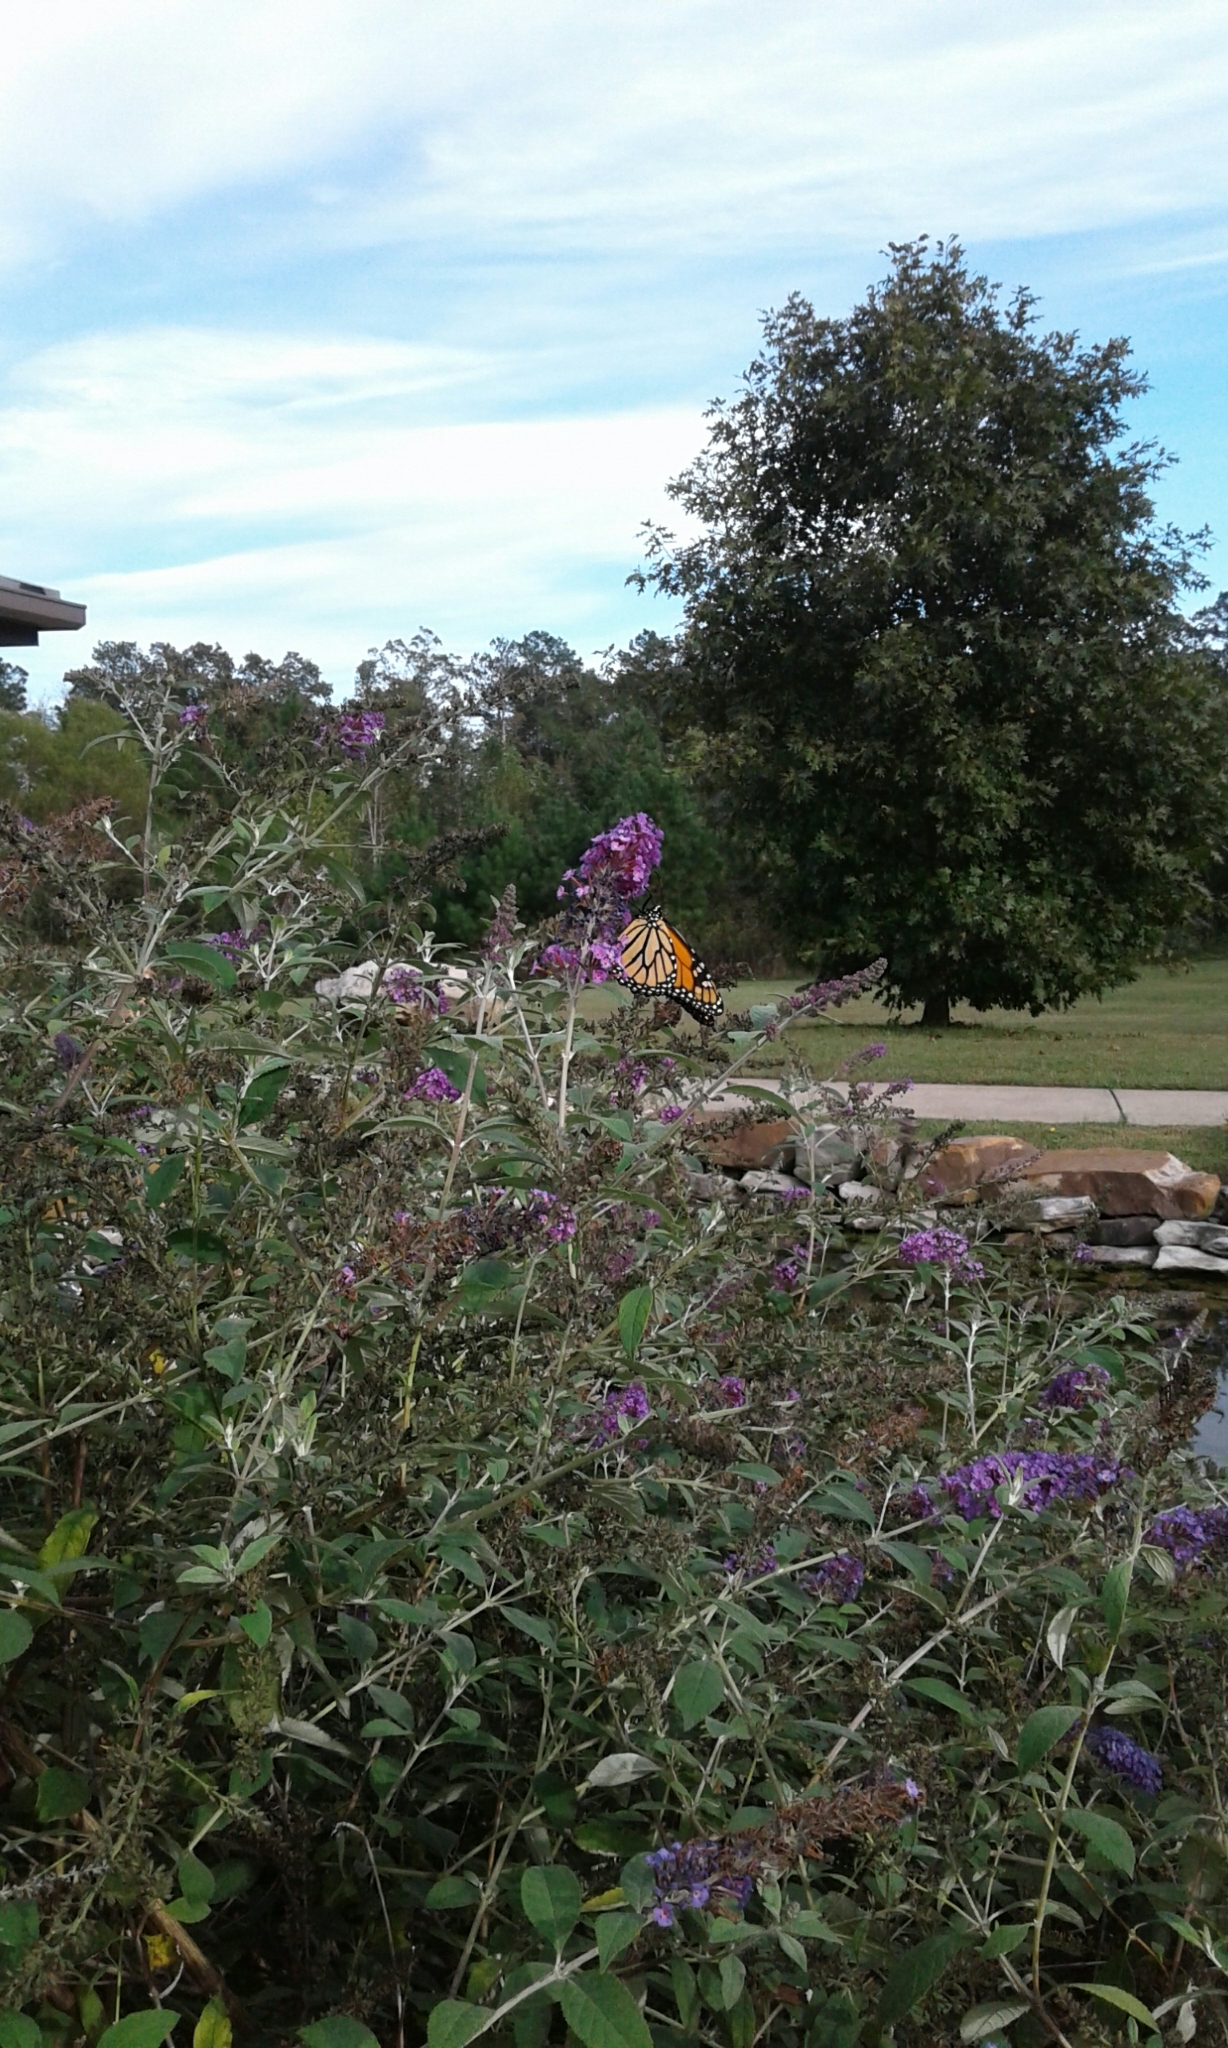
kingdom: Animalia
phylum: Arthropoda
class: Insecta
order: Lepidoptera
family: Nymphalidae
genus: Danaus
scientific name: Danaus plexippus
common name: Monarch
